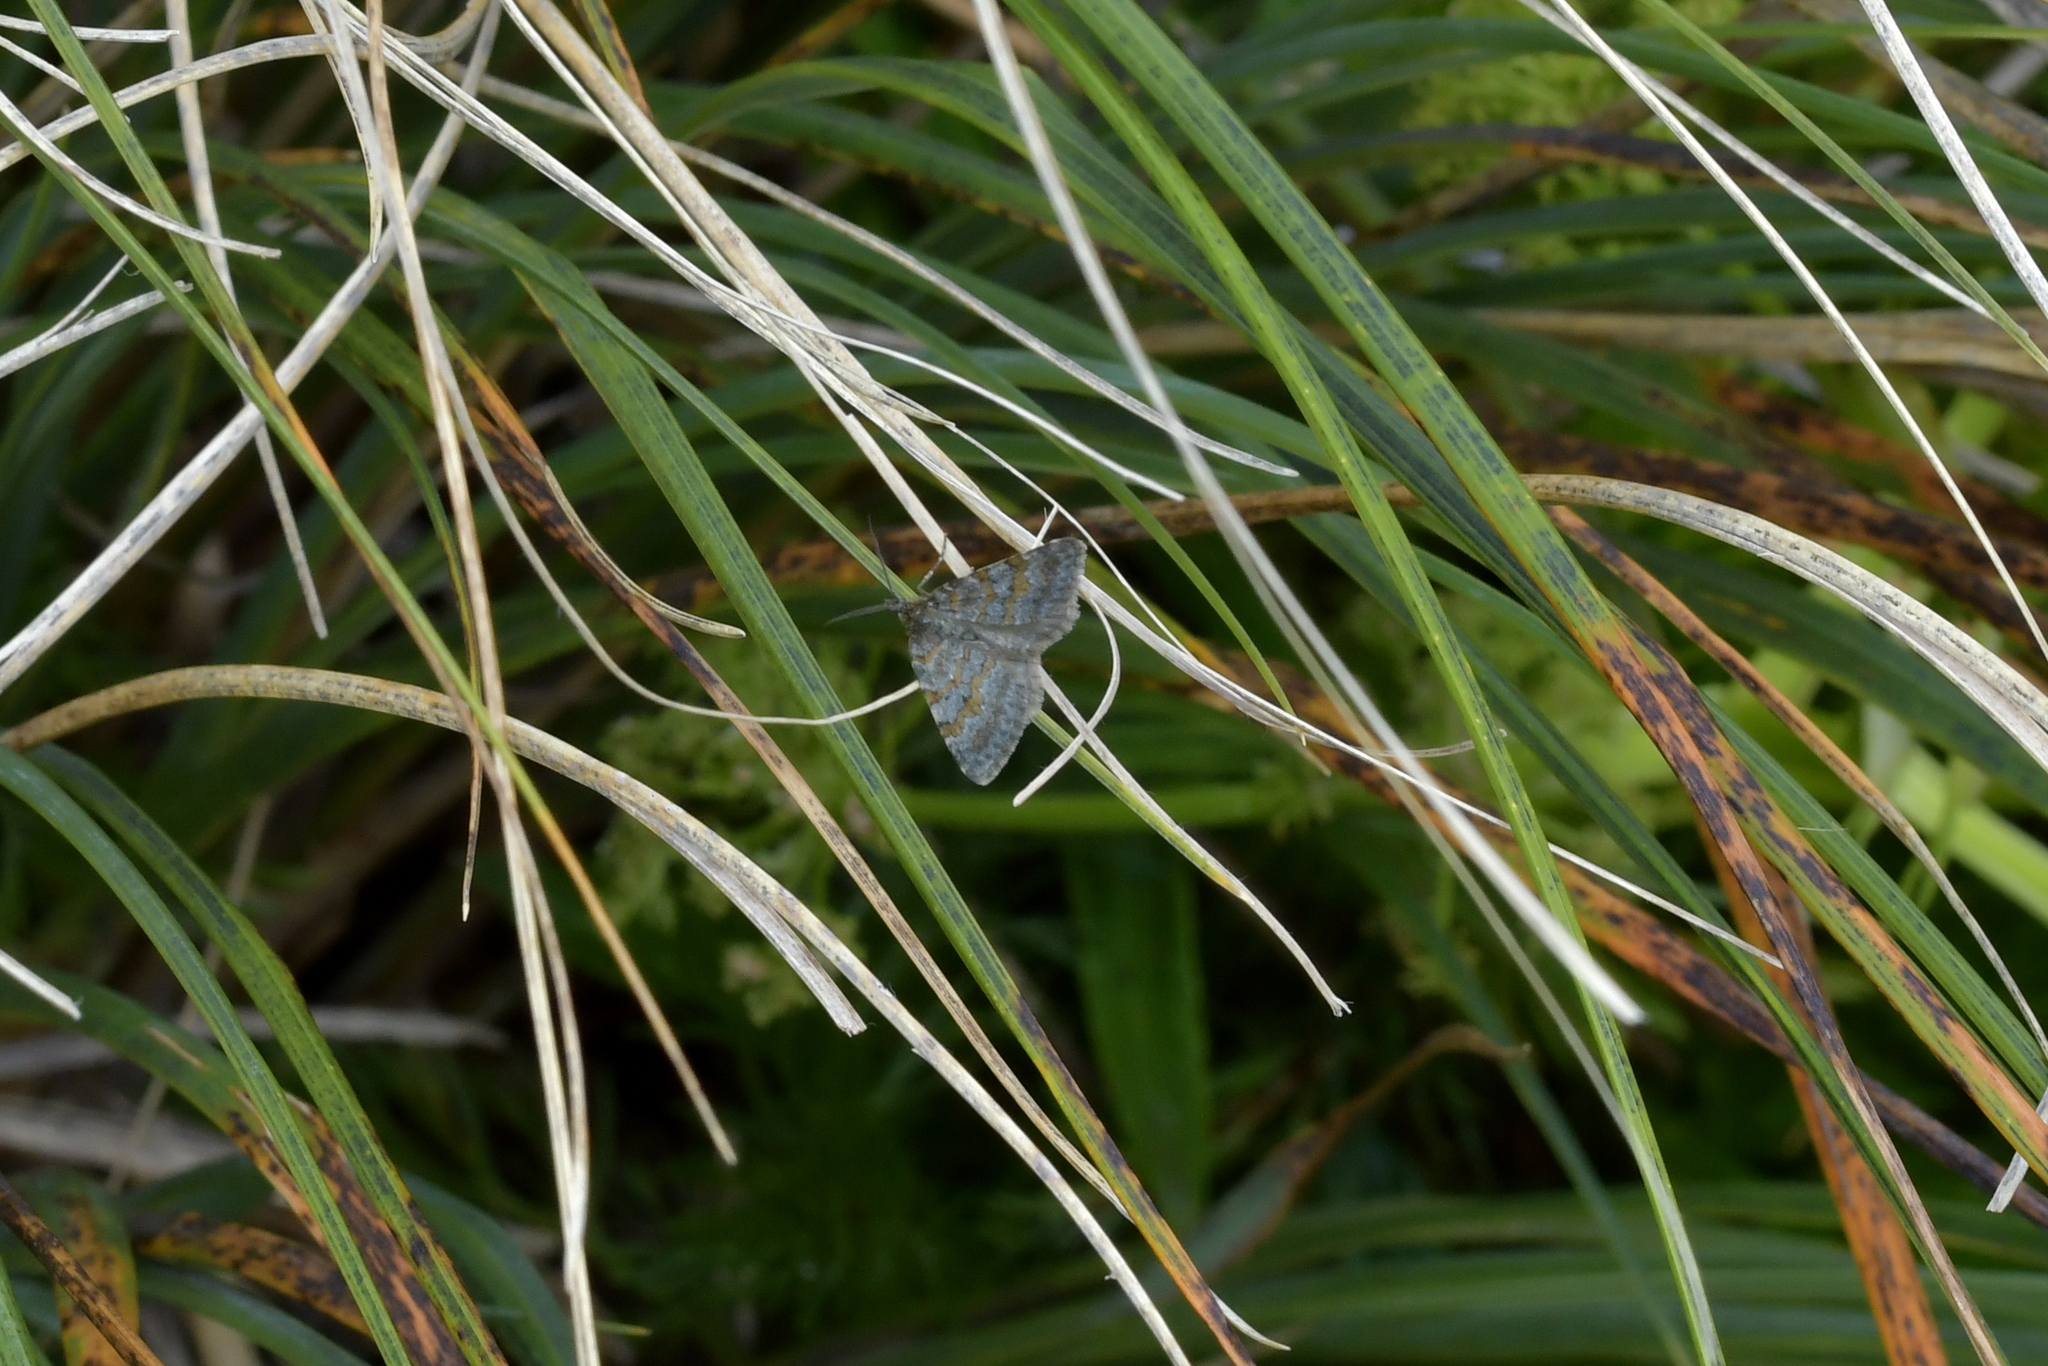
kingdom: Animalia
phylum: Arthropoda
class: Insecta
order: Lepidoptera
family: Geometridae
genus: Asaphodes
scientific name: Asaphodes omichlias
